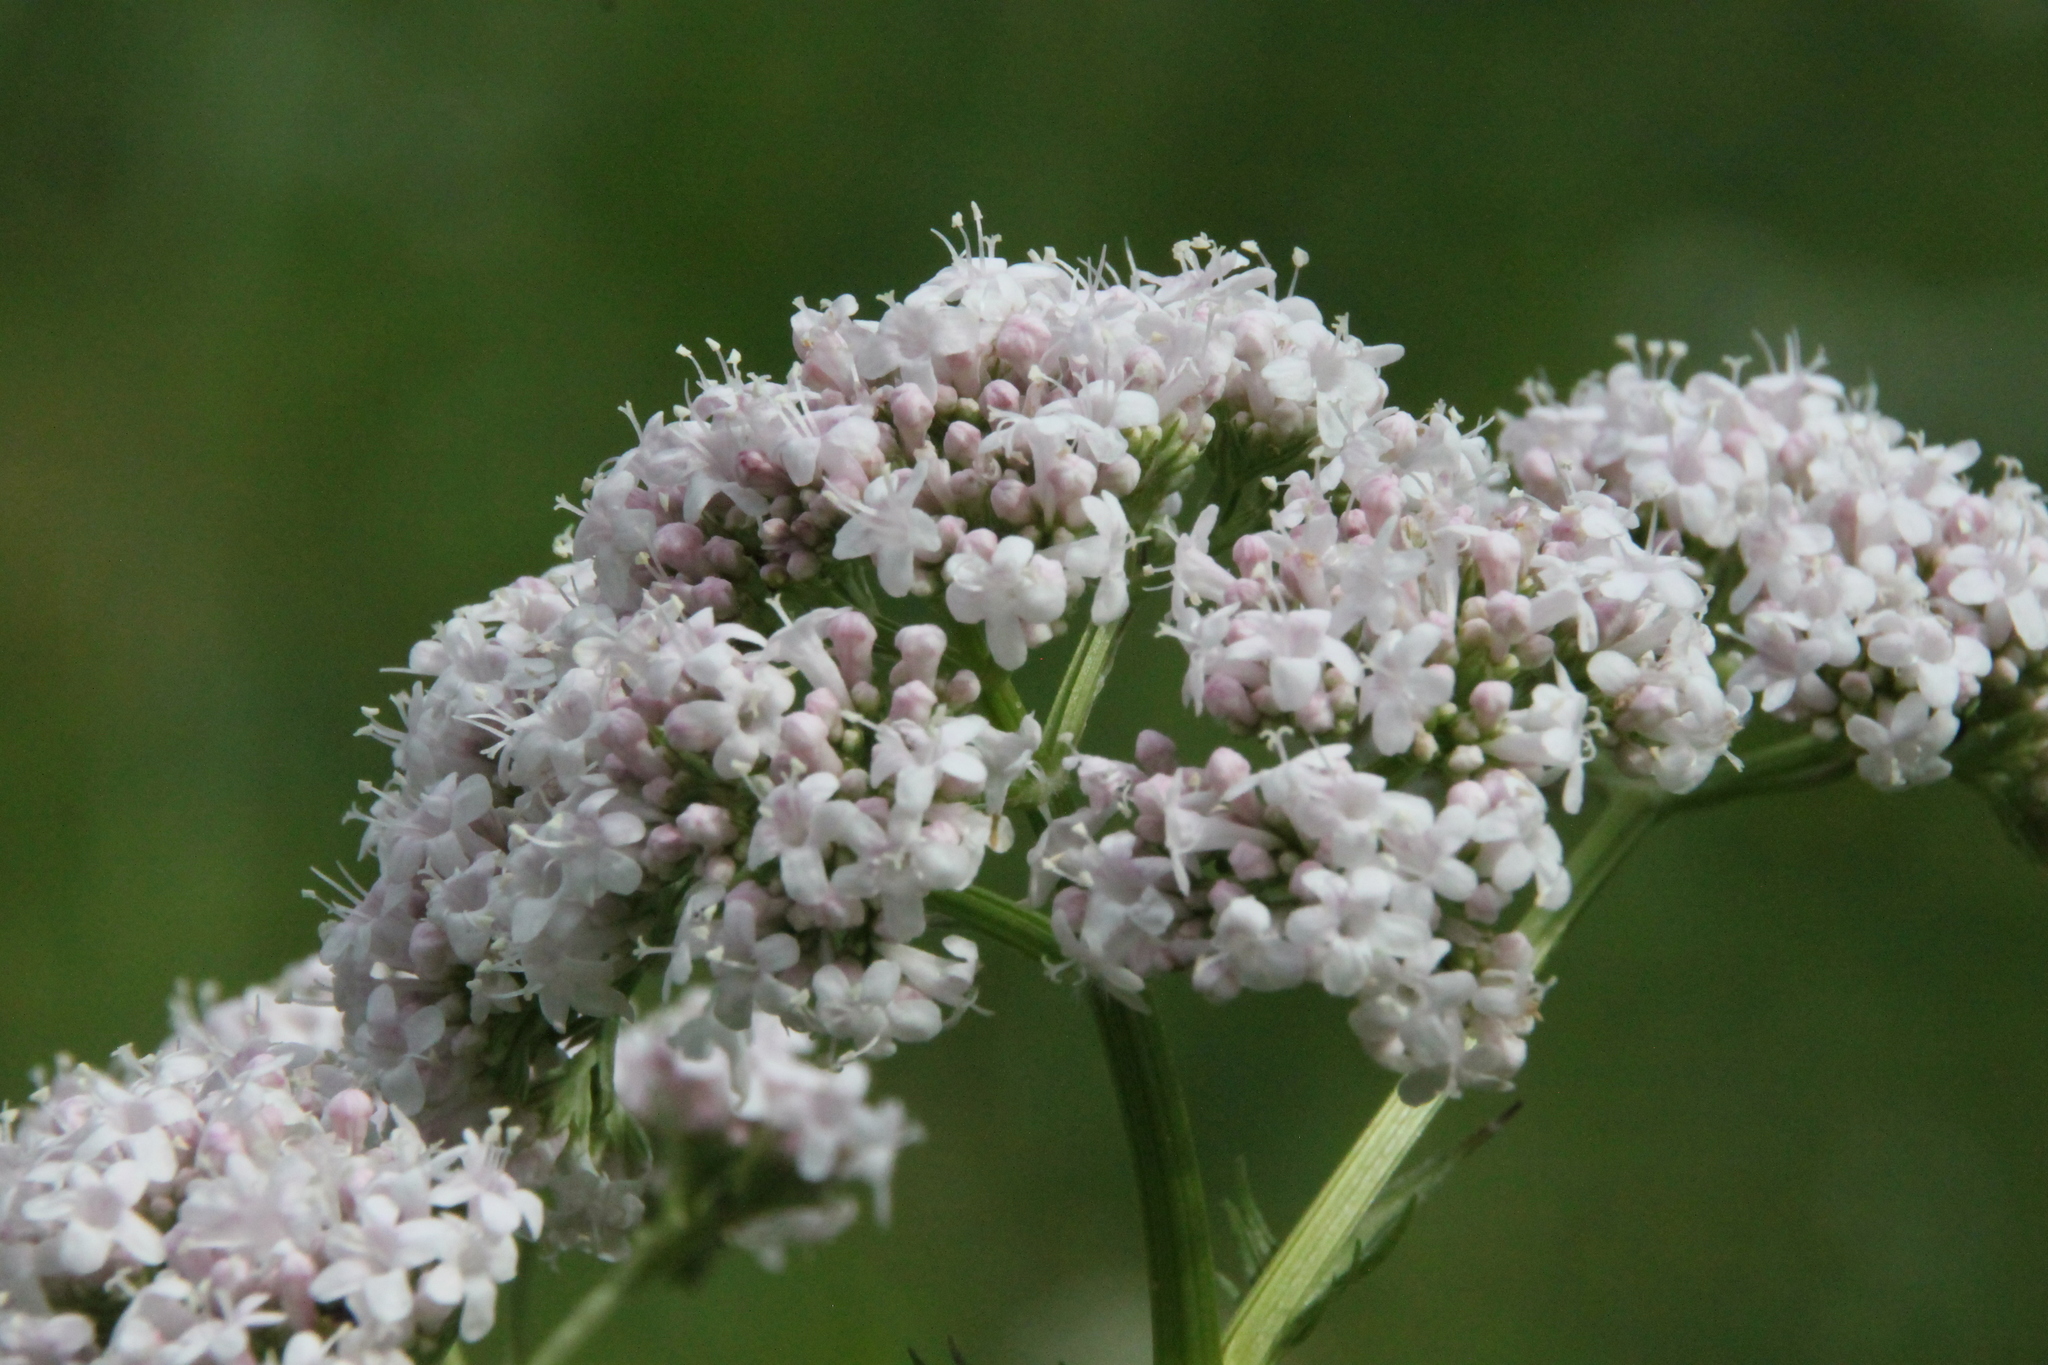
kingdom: Plantae
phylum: Tracheophyta
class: Magnoliopsida
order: Dipsacales
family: Caprifoliaceae
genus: Valeriana
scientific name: Valeriana officinalis
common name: Common valerian
